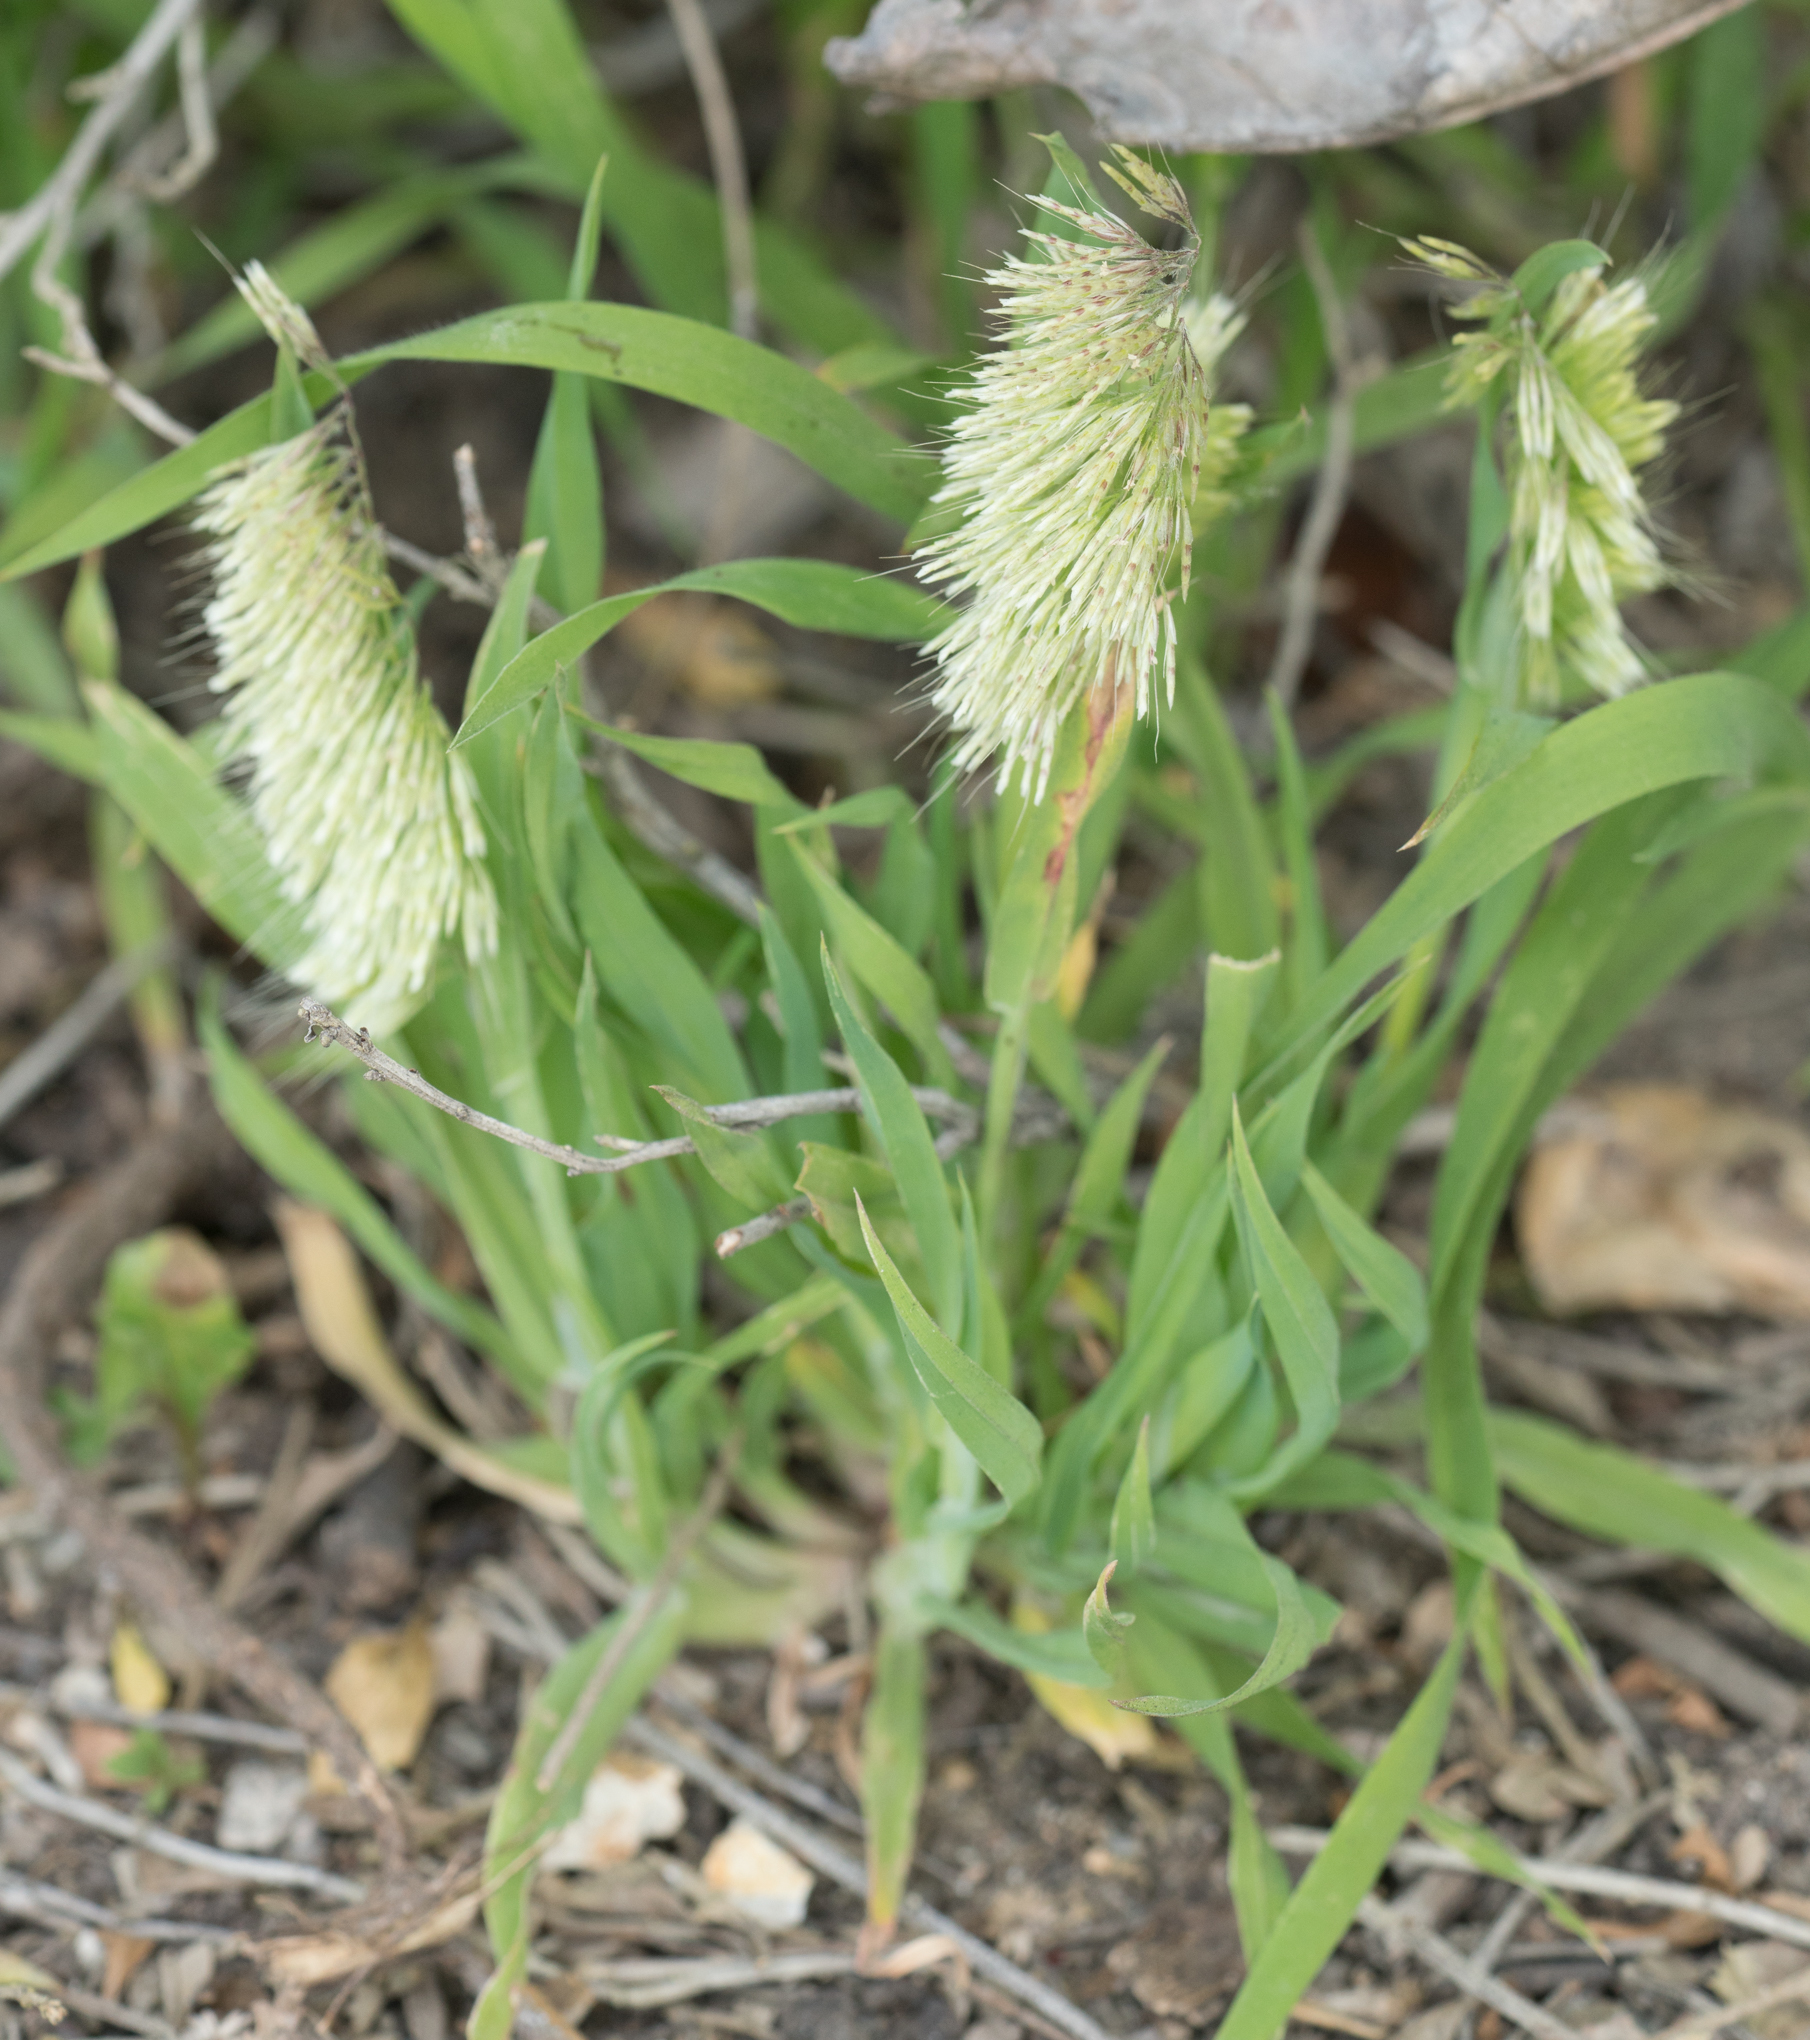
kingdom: Plantae
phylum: Tracheophyta
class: Liliopsida
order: Poales
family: Poaceae
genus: Lamarckia
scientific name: Lamarckia aurea
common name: Golden dog's-tail
